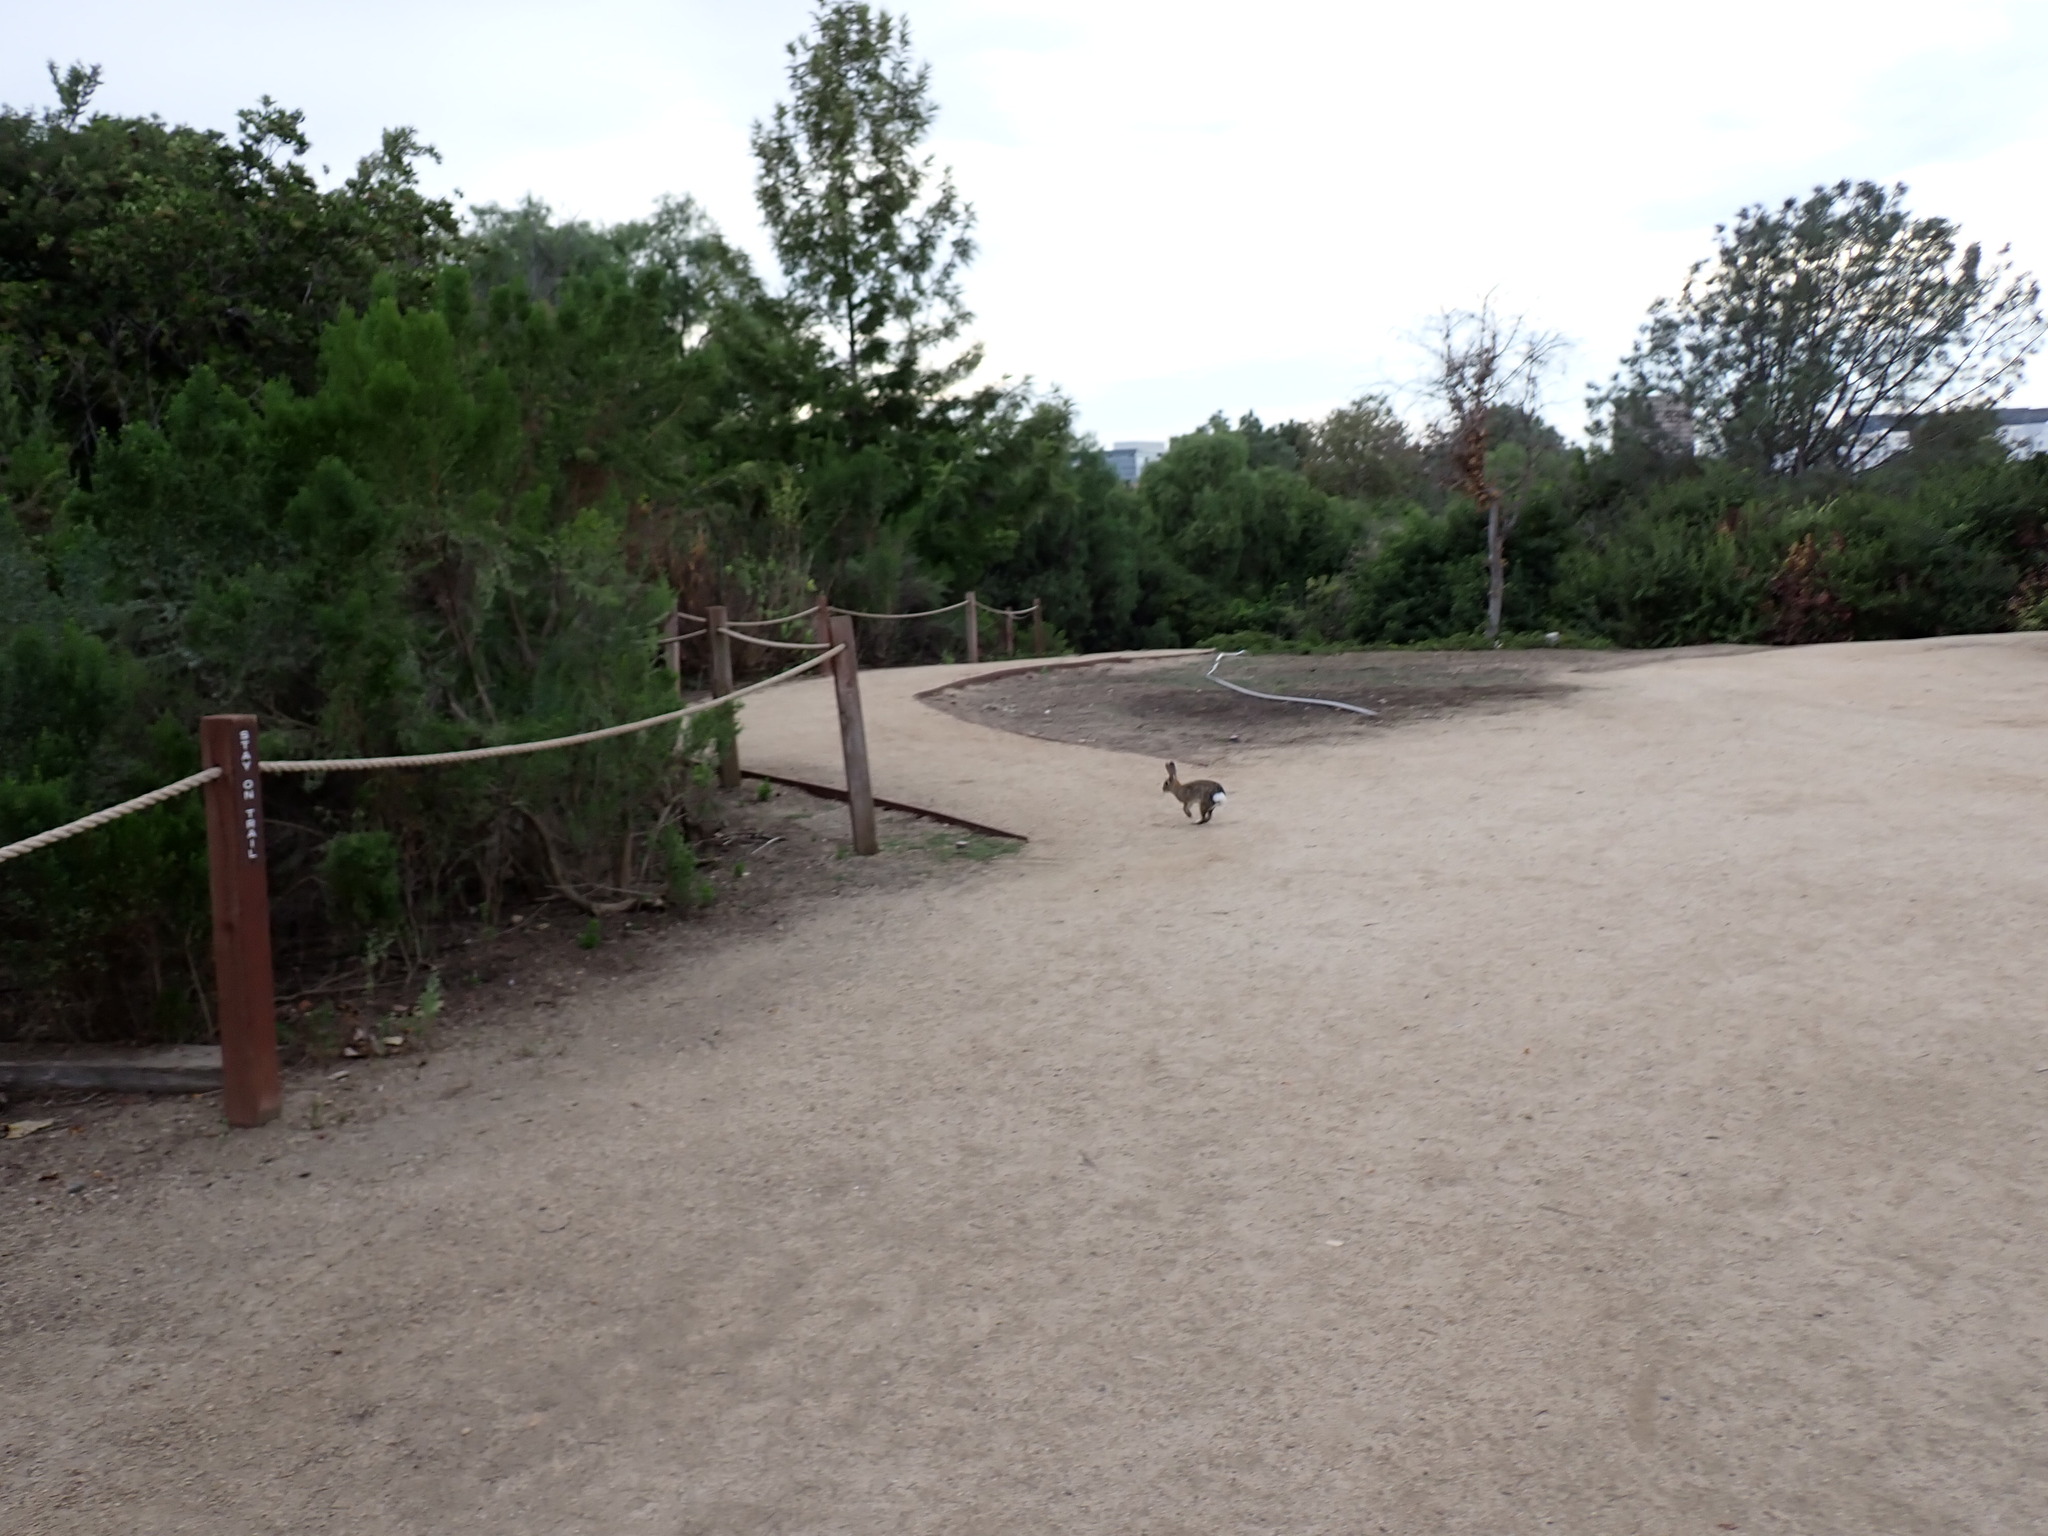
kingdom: Animalia
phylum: Chordata
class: Mammalia
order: Lagomorpha
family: Leporidae
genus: Sylvilagus
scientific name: Sylvilagus audubonii
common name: Desert cottontail
